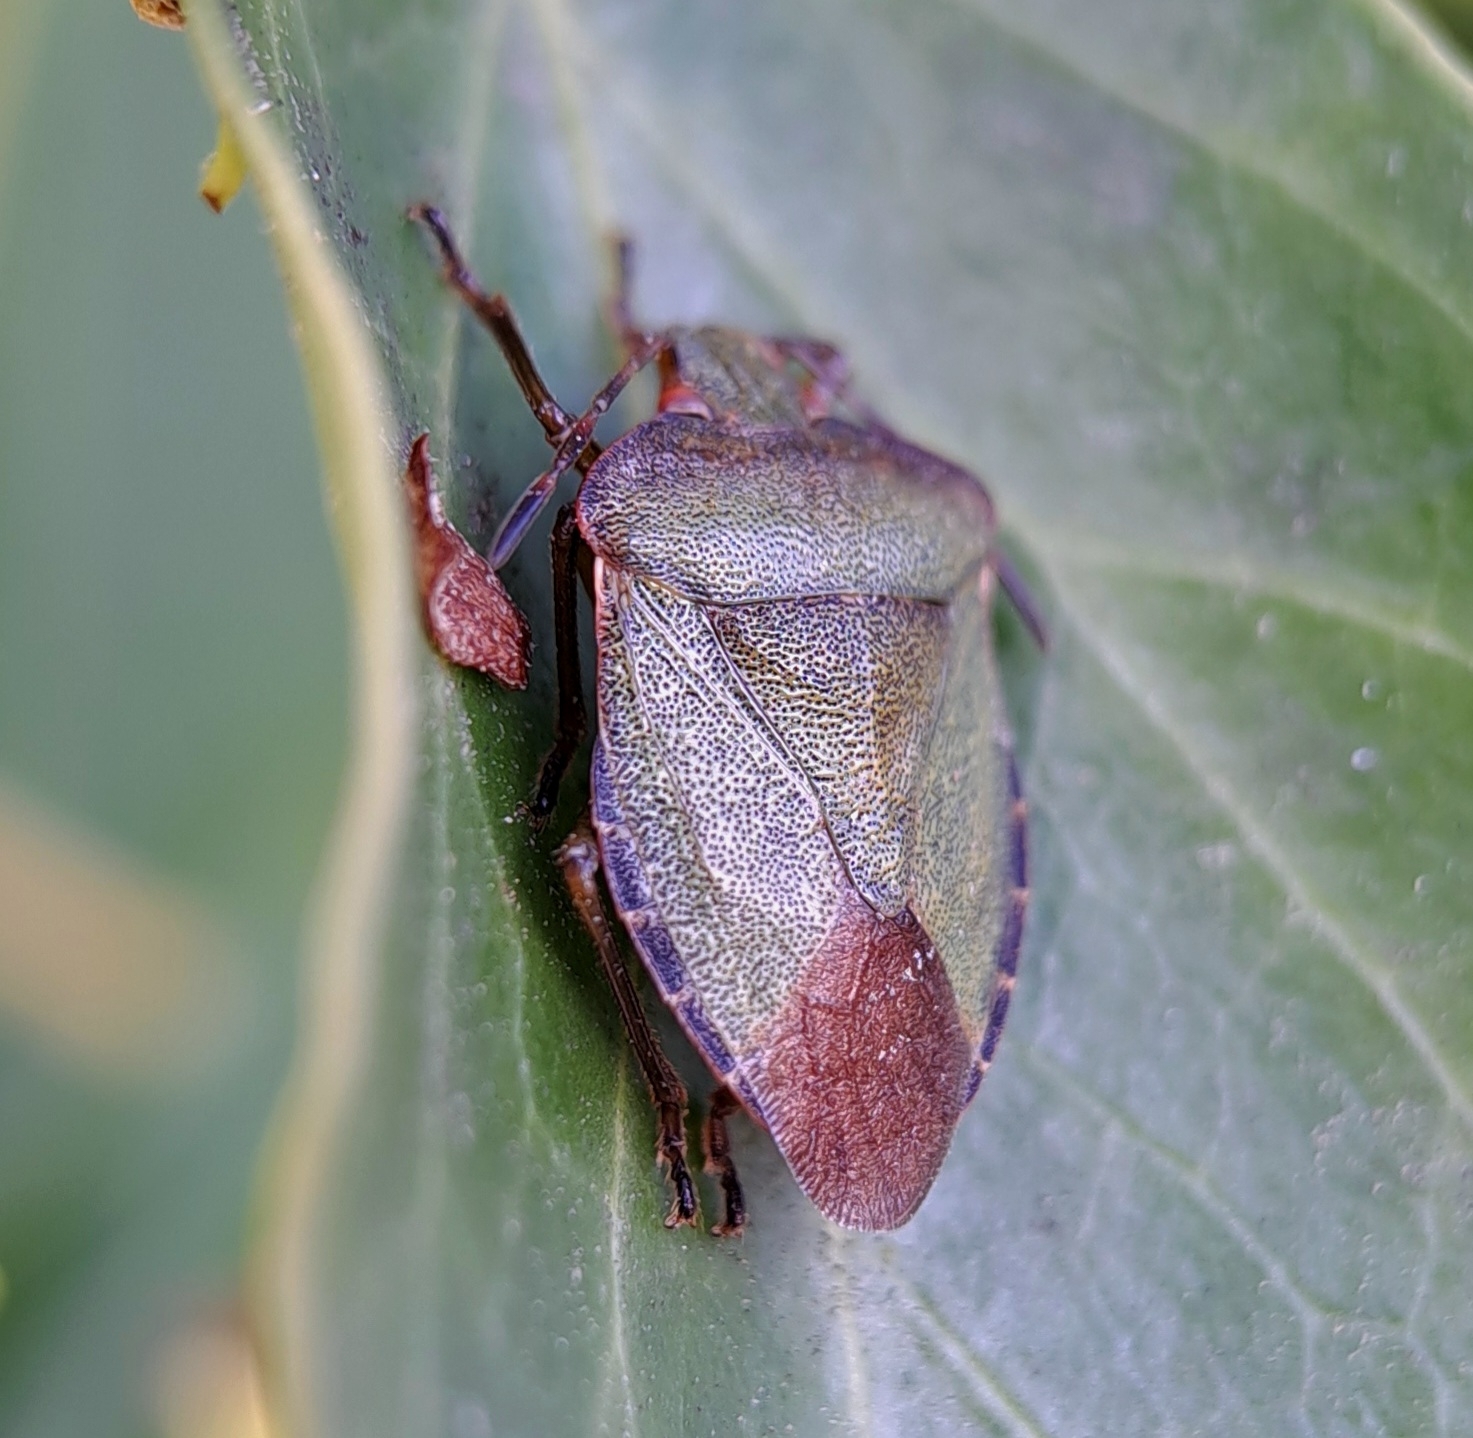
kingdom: Animalia
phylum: Arthropoda
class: Insecta
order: Hemiptera
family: Pentatomidae
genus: Palomena
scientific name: Palomena prasina
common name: Green shieldbug
